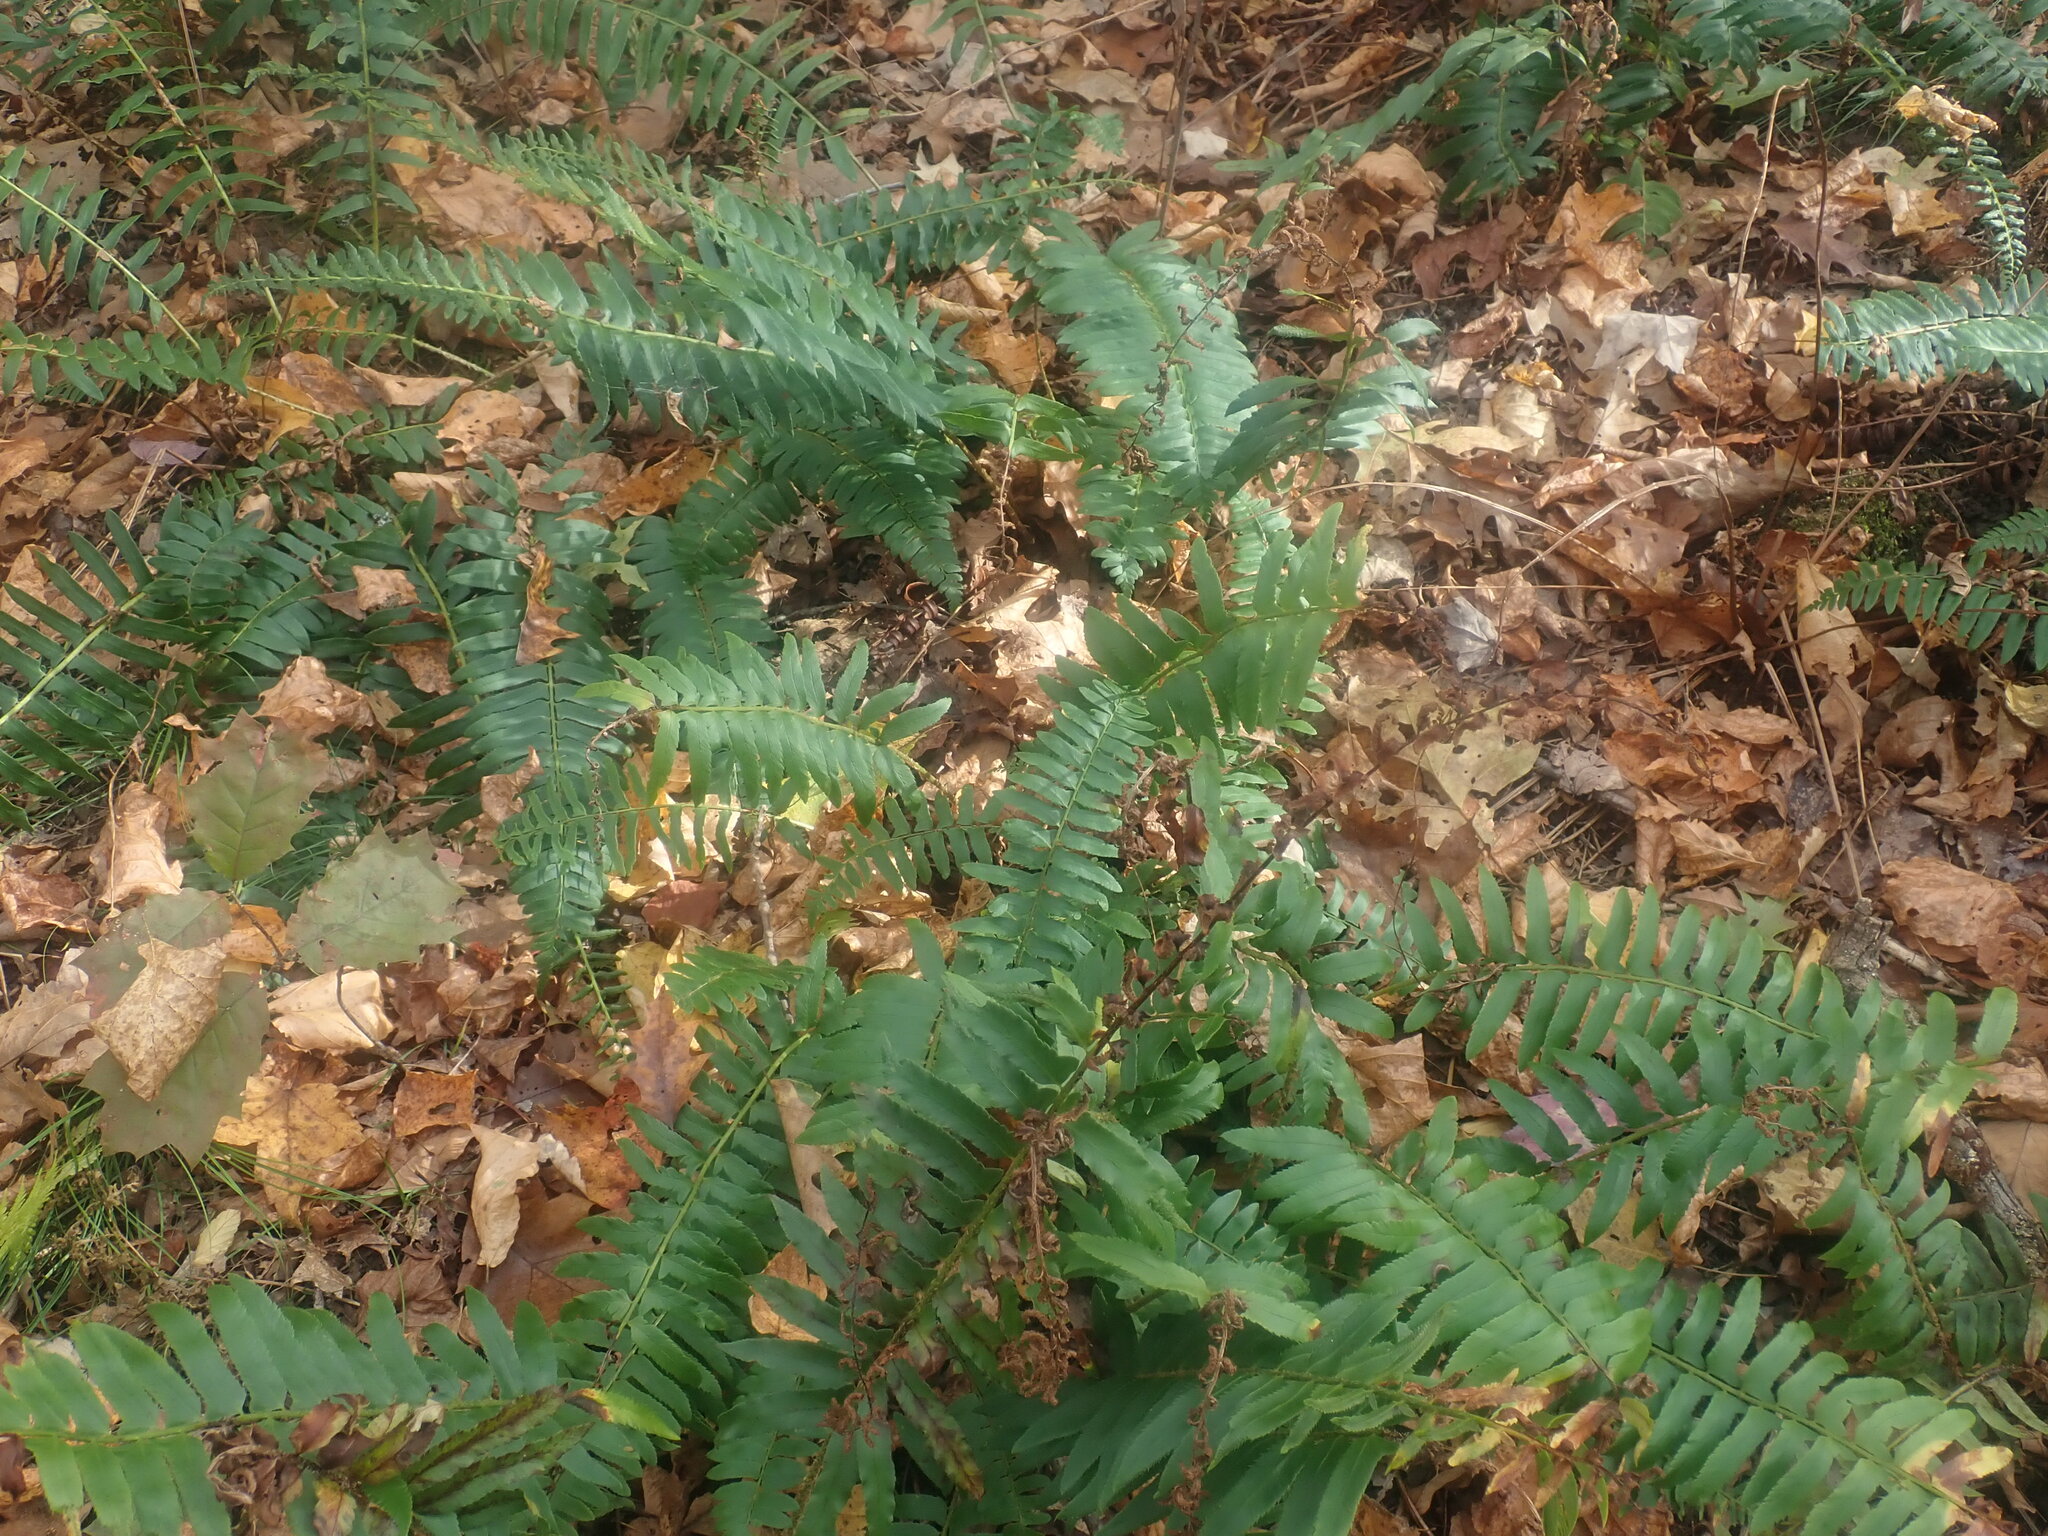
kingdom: Plantae
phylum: Tracheophyta
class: Polypodiopsida
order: Polypodiales
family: Dryopteridaceae
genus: Polystichum
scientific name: Polystichum acrostichoides
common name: Christmas fern
